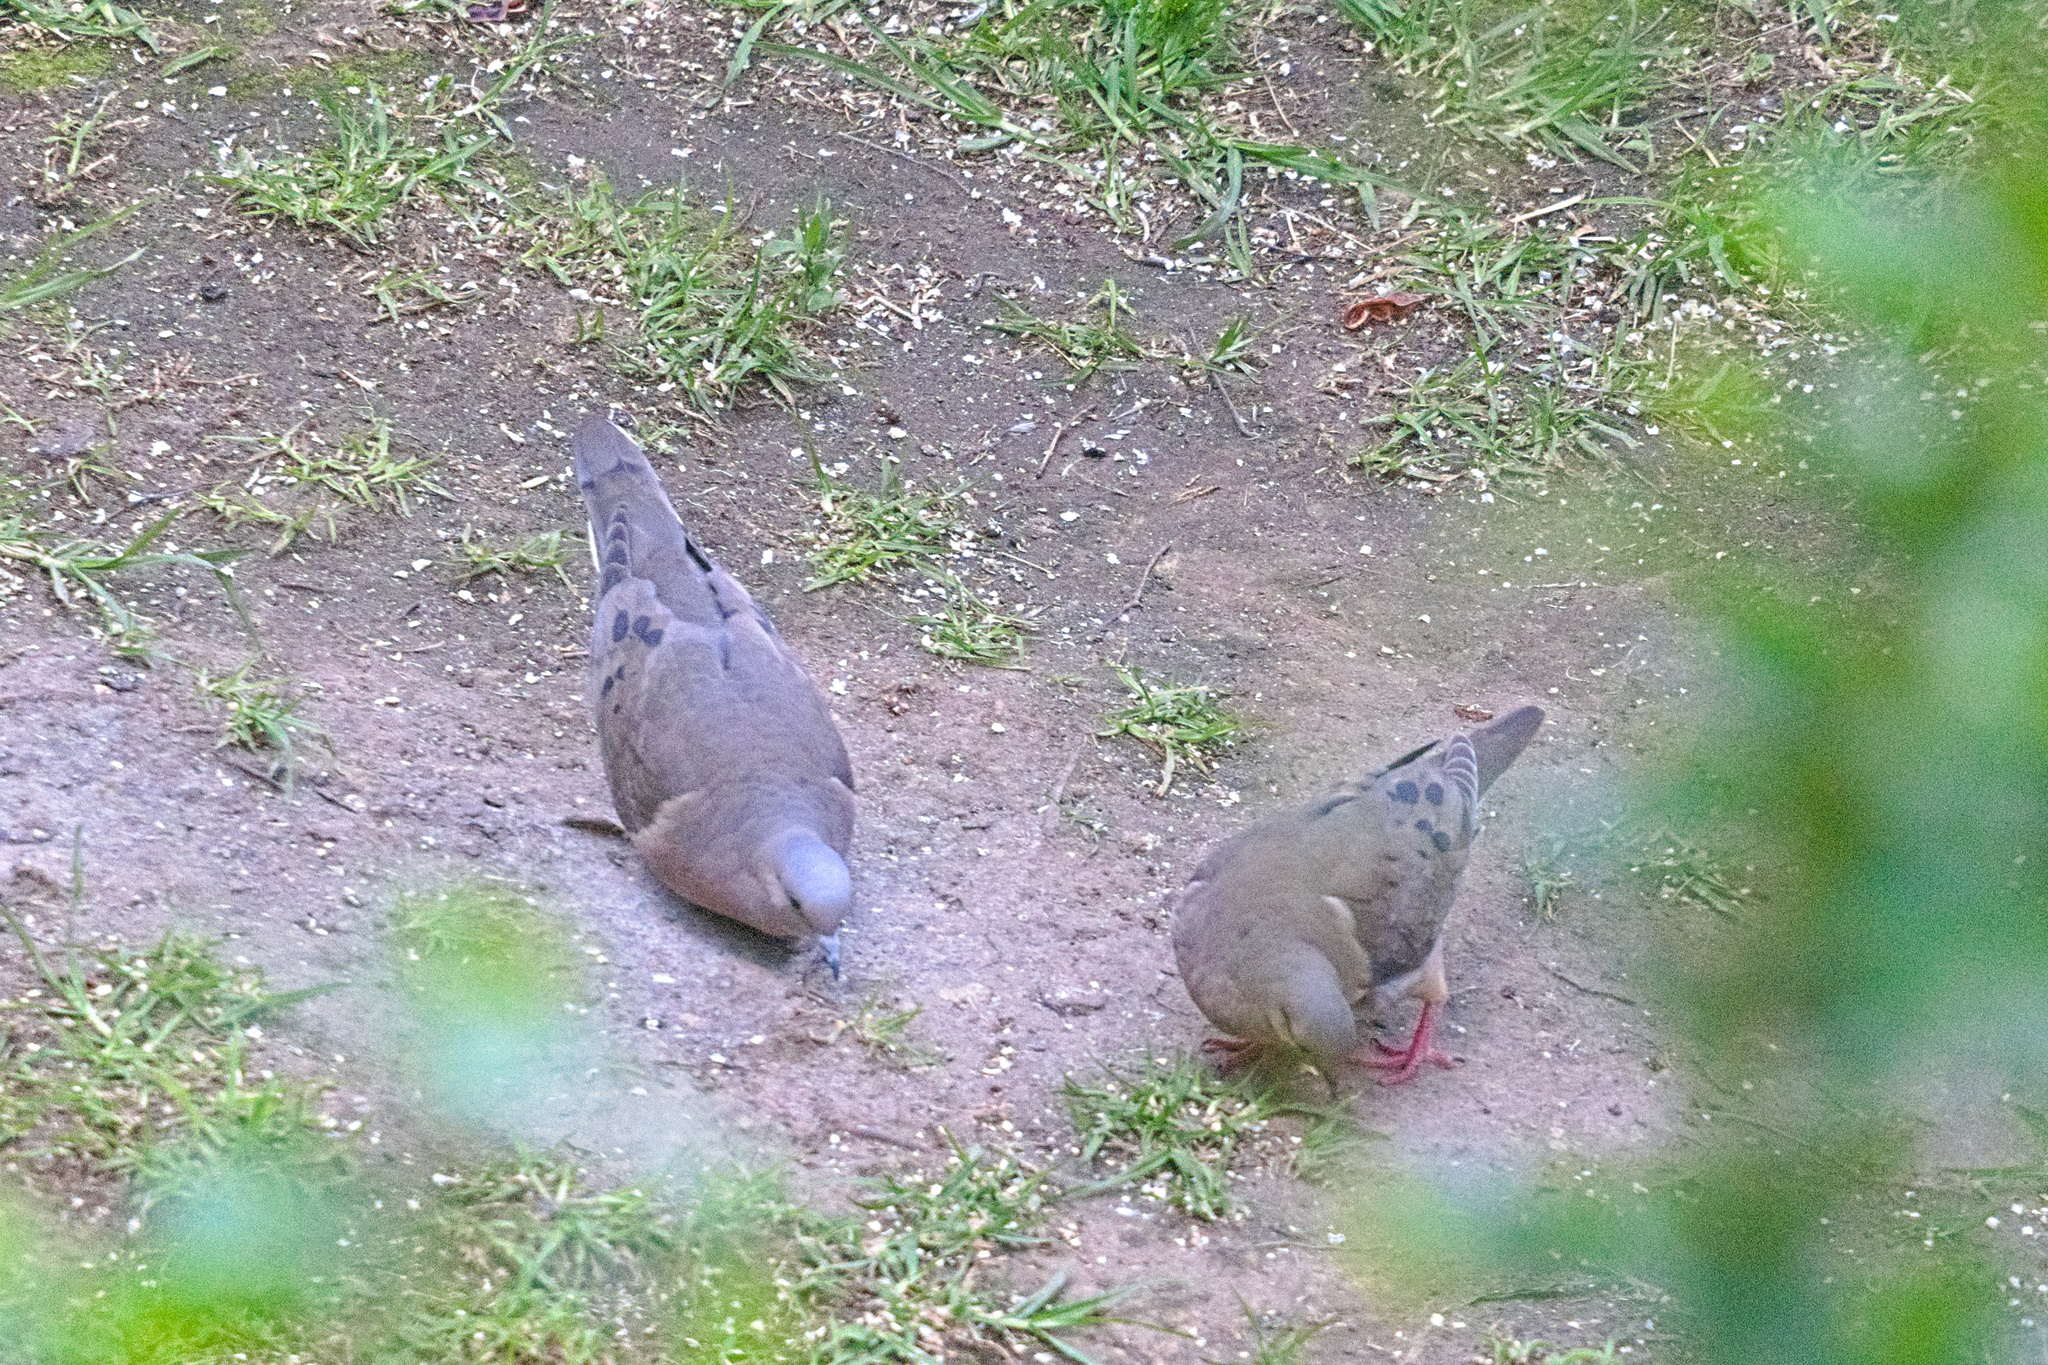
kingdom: Animalia
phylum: Chordata
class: Aves
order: Columbiformes
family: Columbidae
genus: Zenaida
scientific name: Zenaida auriculata
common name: Eared dove
